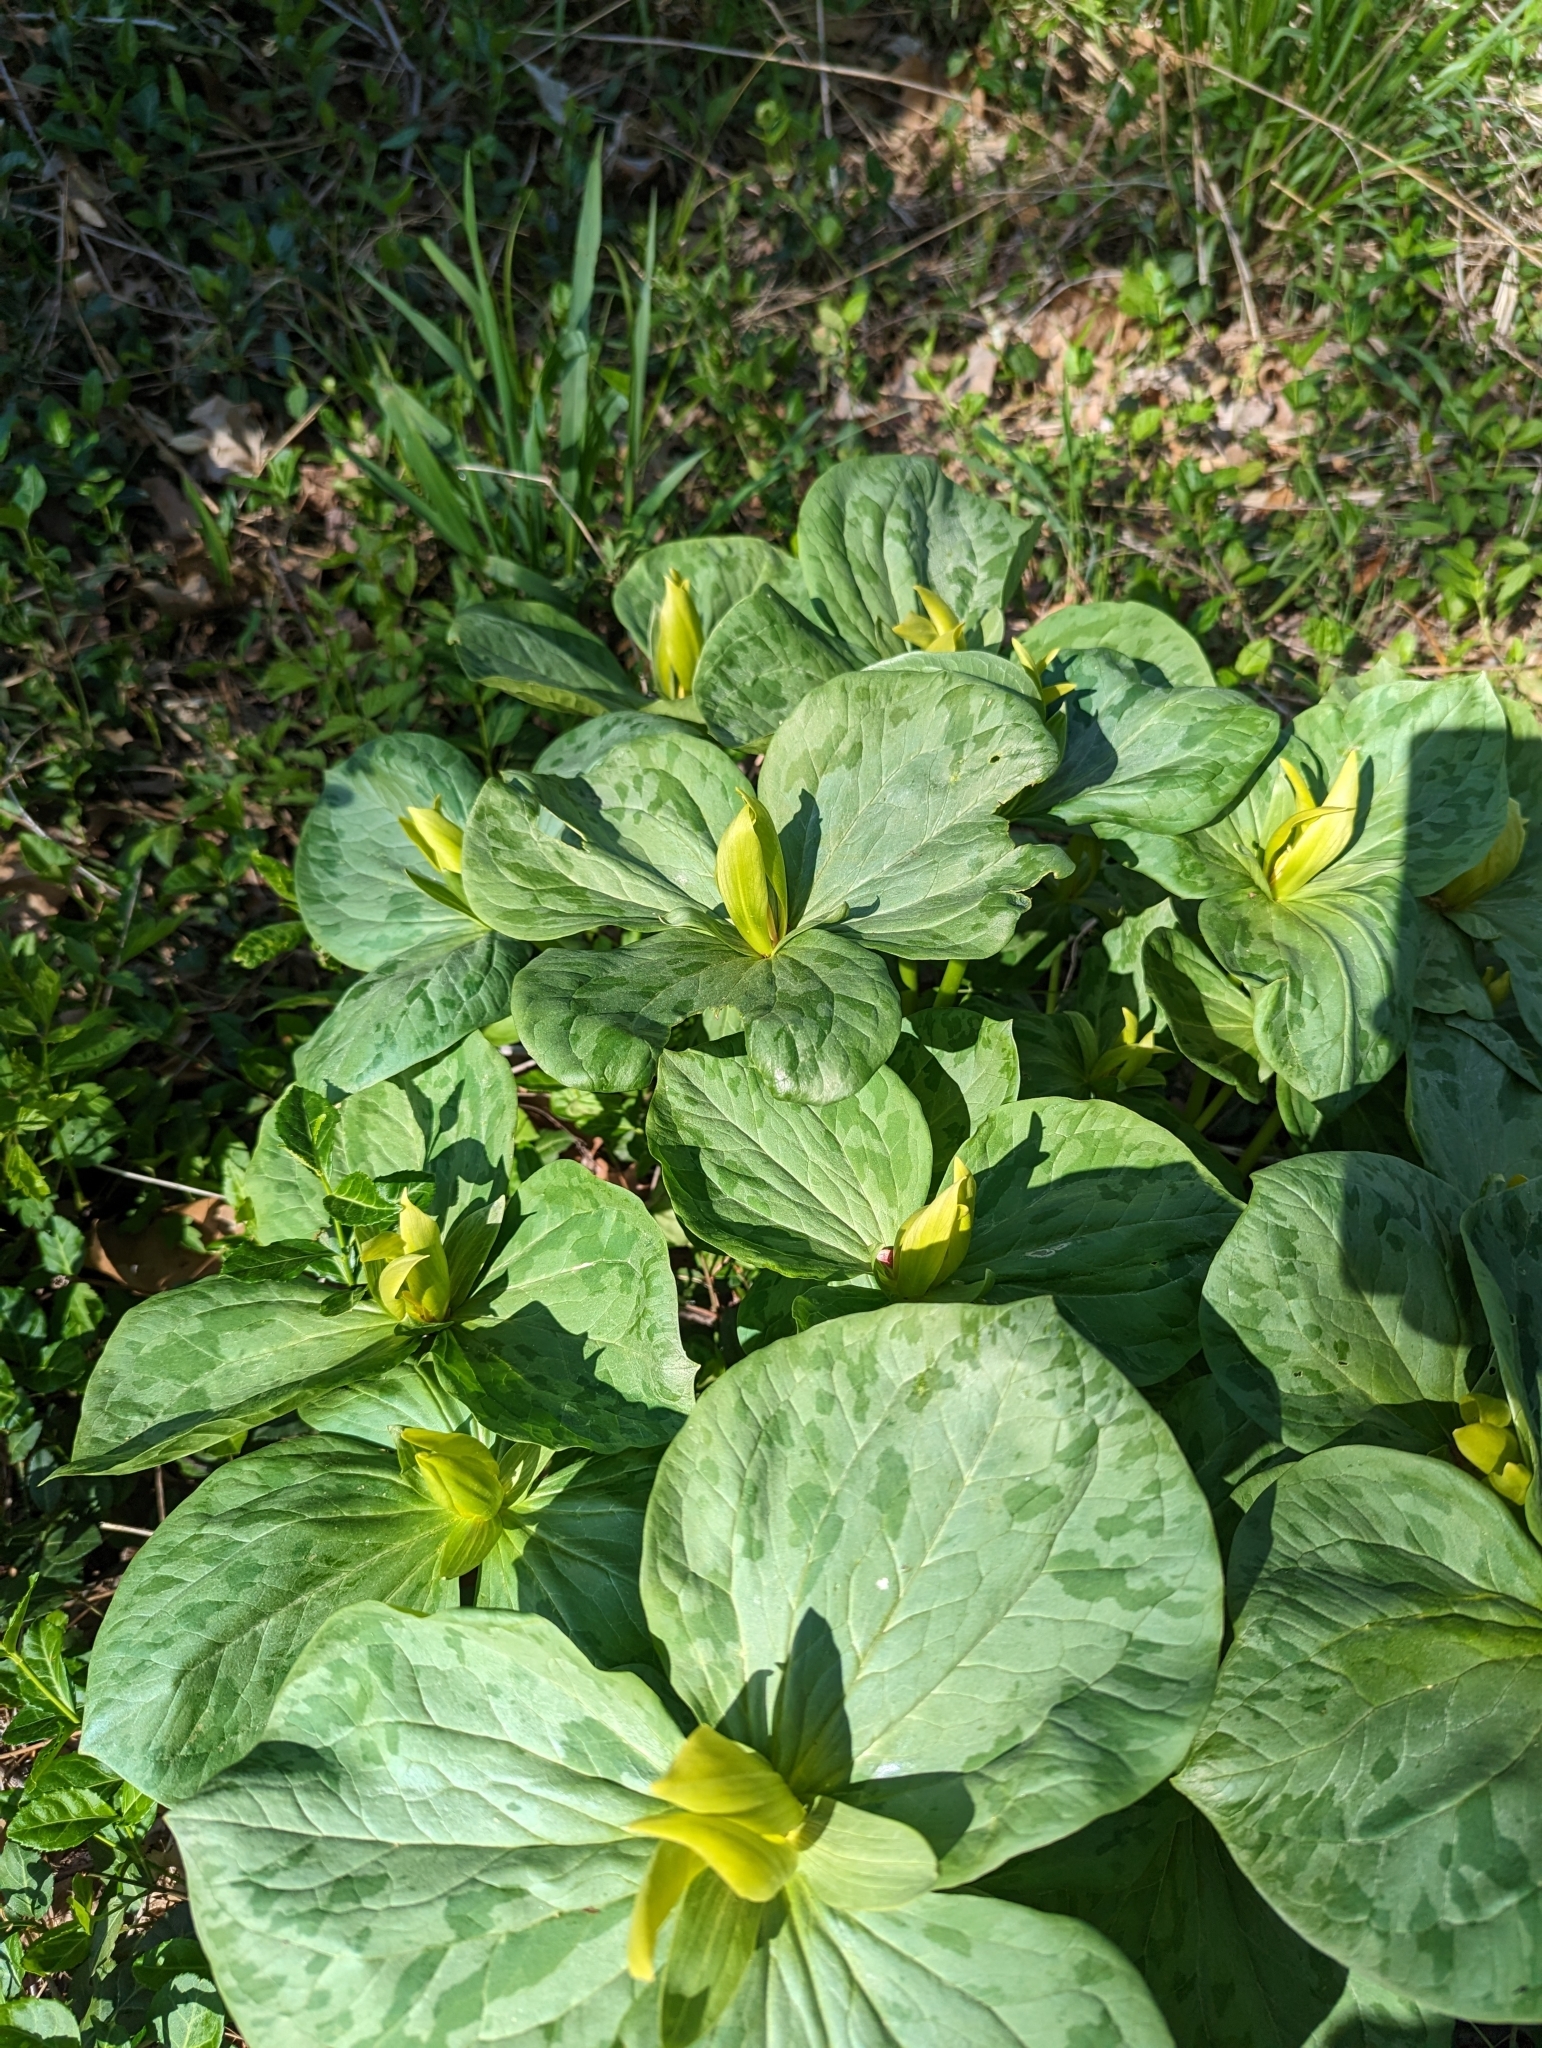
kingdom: Plantae
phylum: Tracheophyta
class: Liliopsida
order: Liliales
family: Melanthiaceae
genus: Trillium
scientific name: Trillium luteum
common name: Wax trillium
